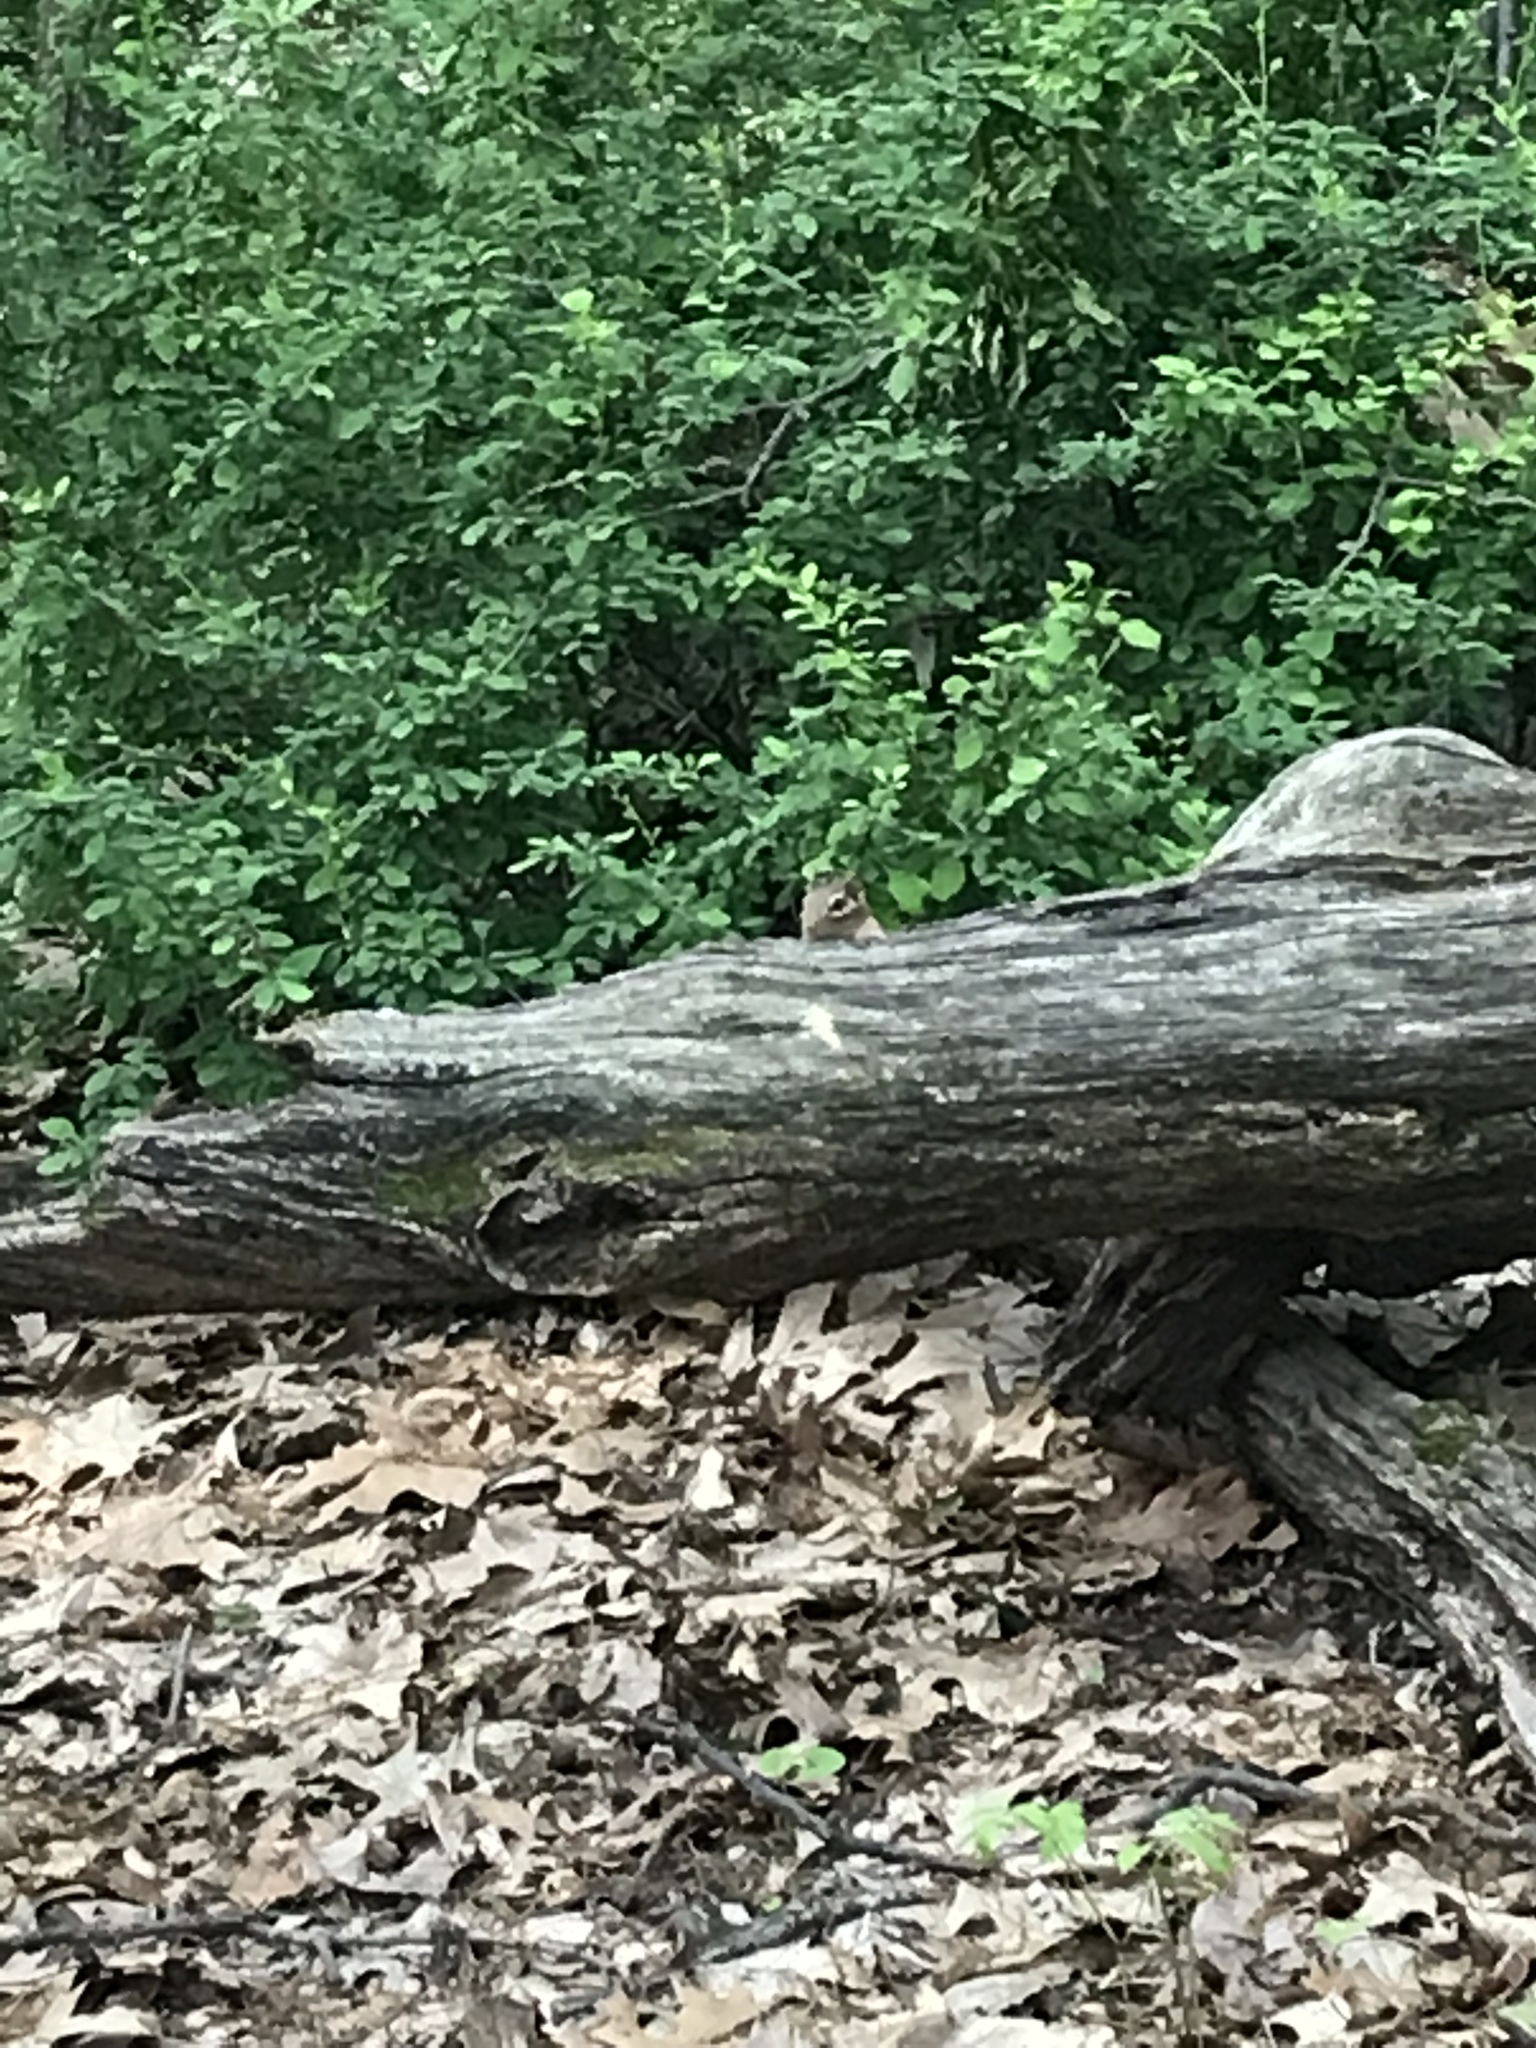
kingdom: Animalia
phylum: Chordata
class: Mammalia
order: Rodentia
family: Sciuridae
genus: Tamias
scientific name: Tamias striatus
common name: Eastern chipmunk
